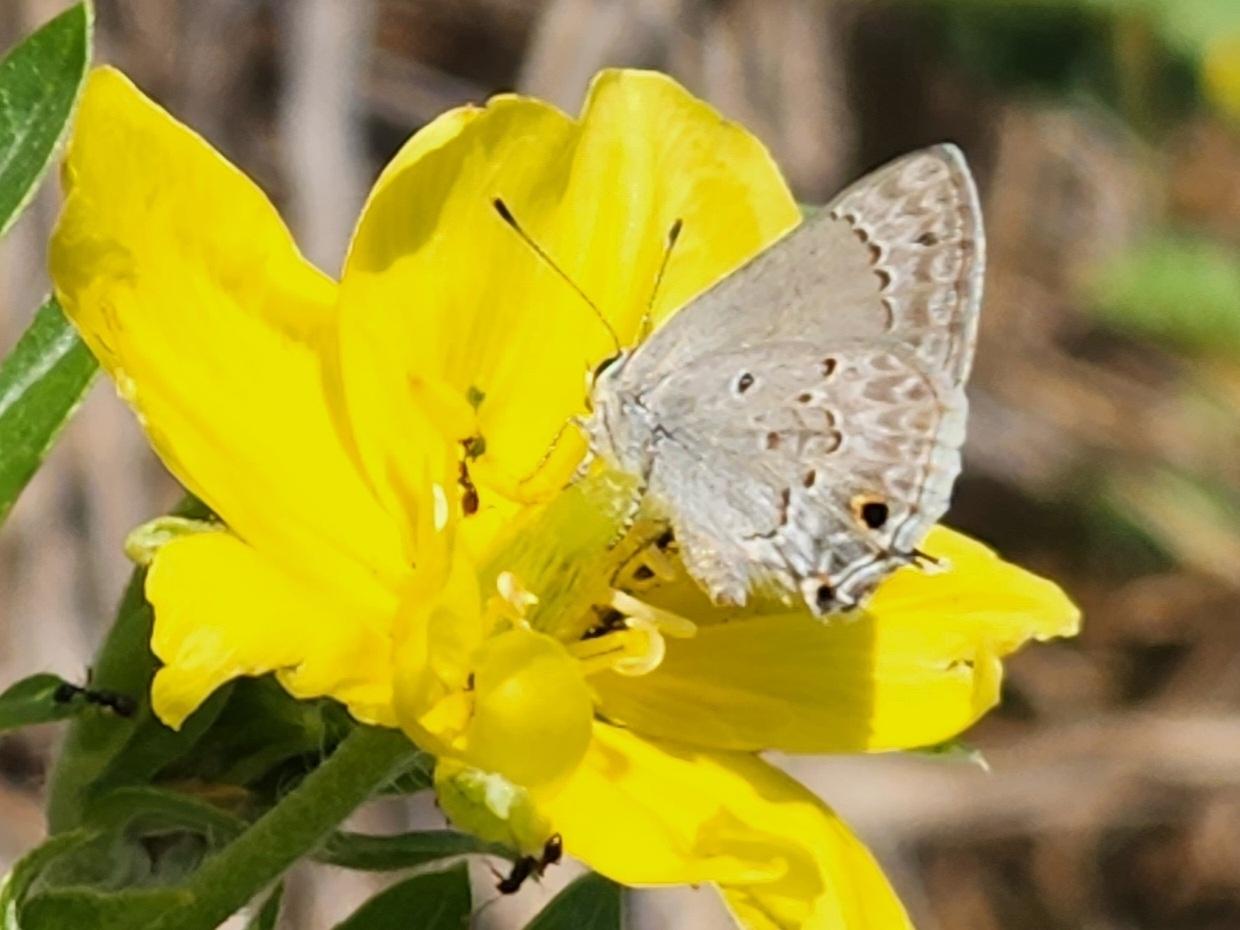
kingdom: Animalia
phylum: Arthropoda
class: Insecta
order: Lepidoptera
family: Lycaenidae
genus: Callicista
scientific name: Callicista columella
